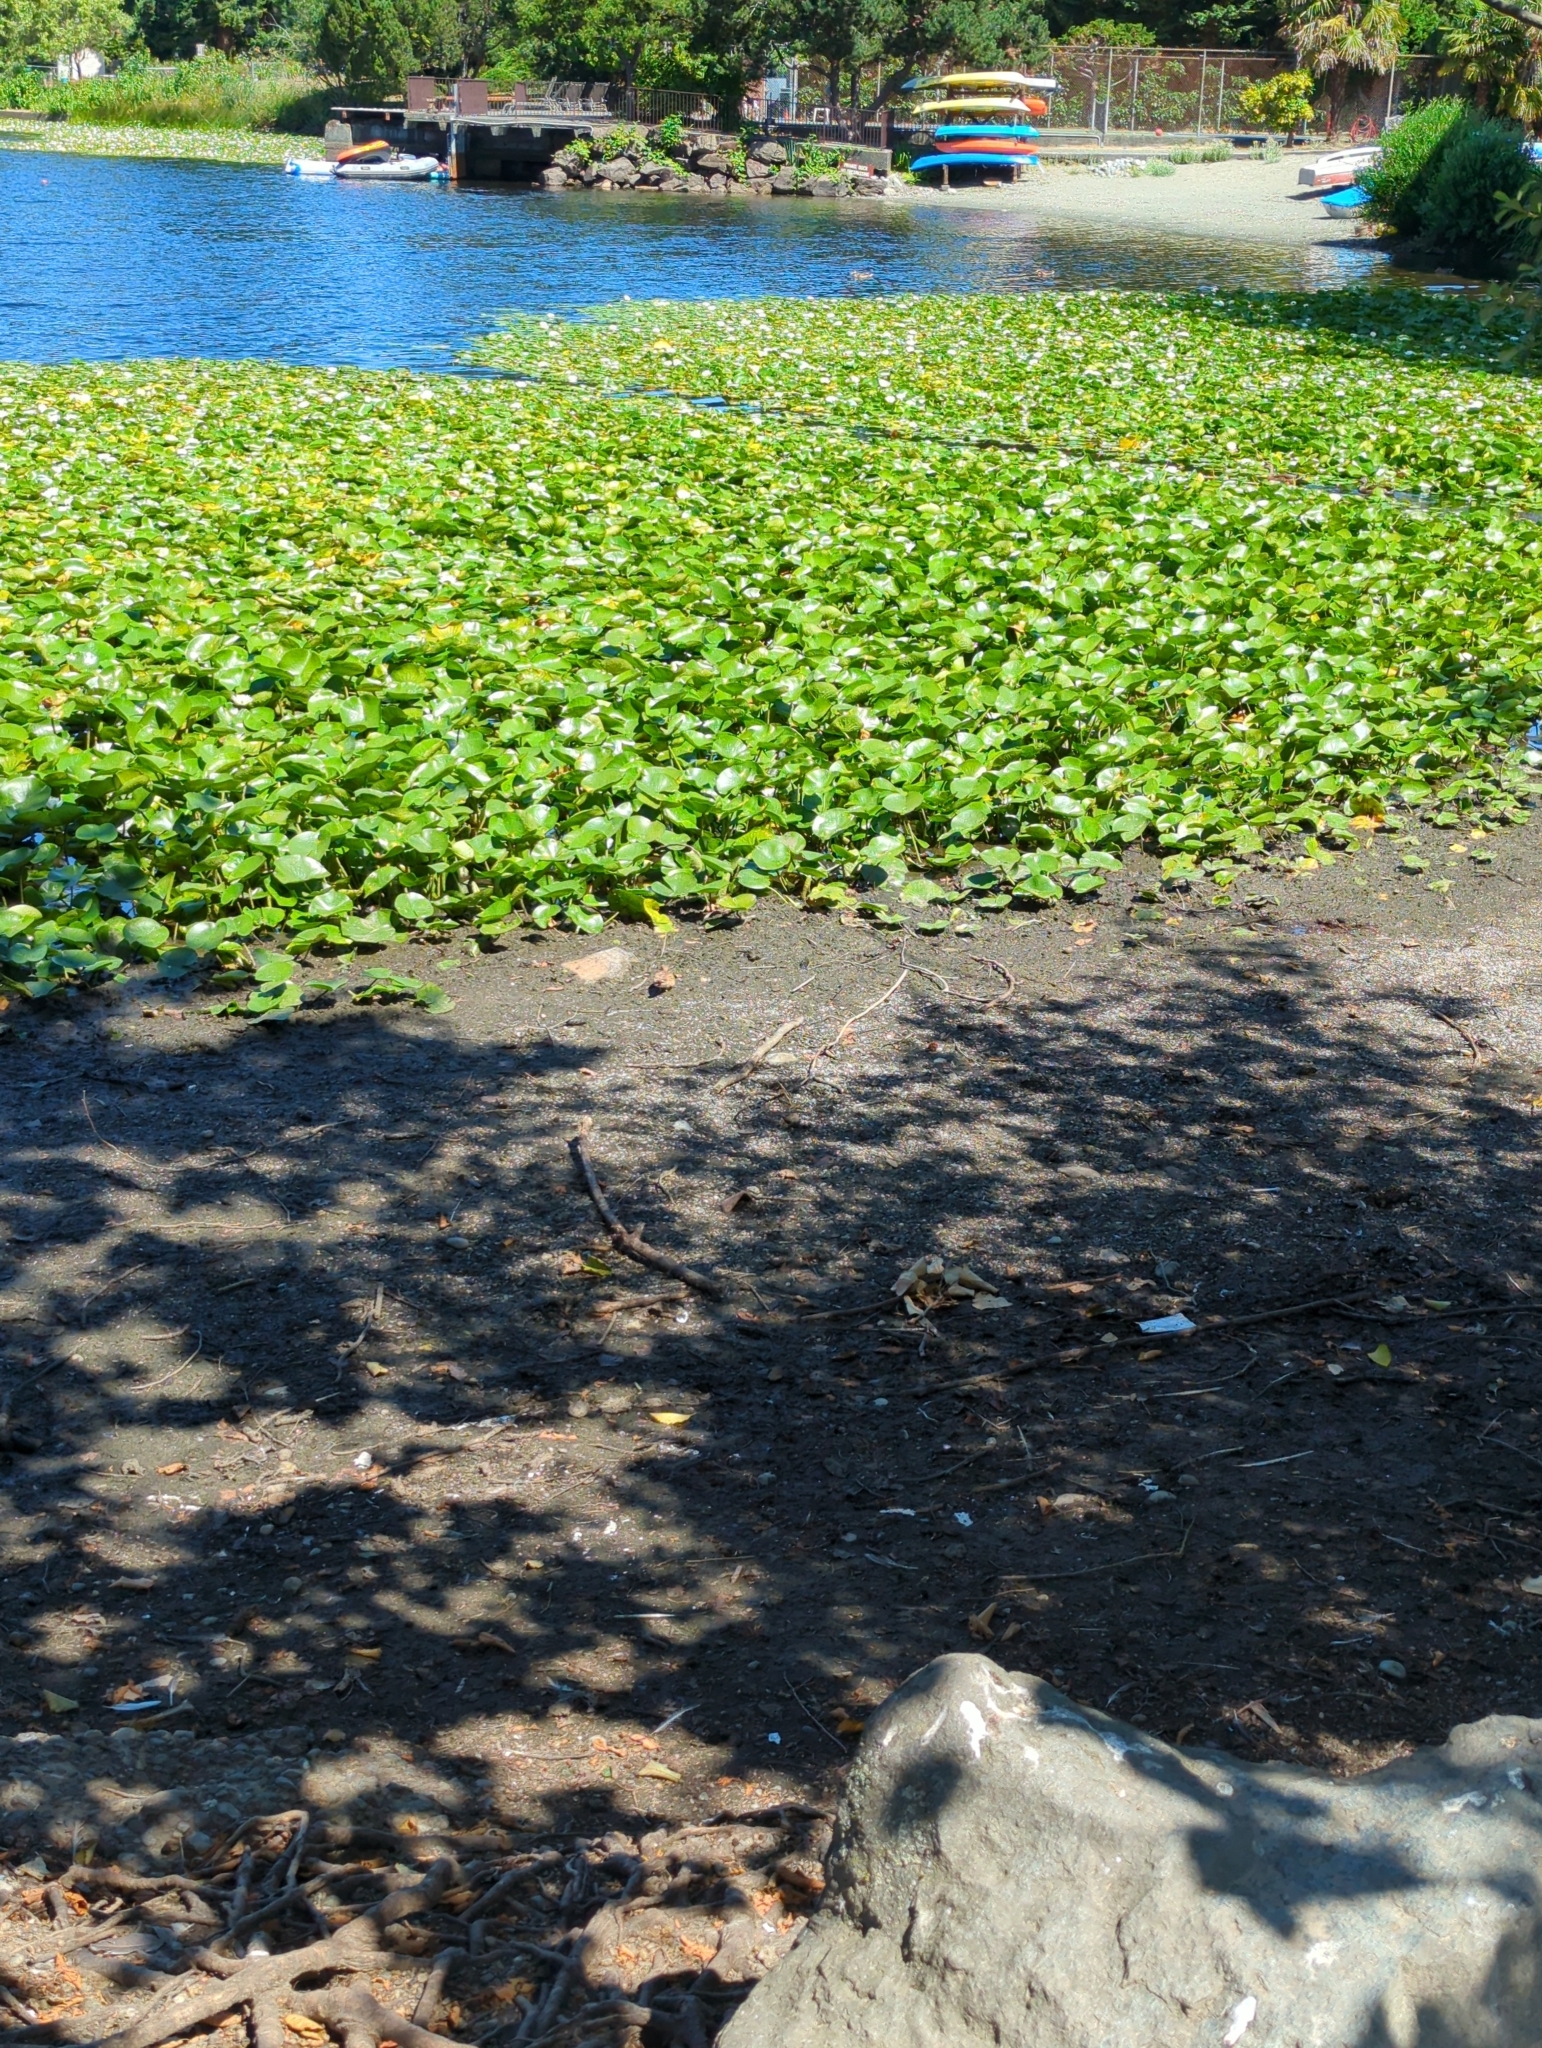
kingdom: Animalia
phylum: Chordata
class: Aves
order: Charadriiformes
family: Charadriidae
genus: Charadrius
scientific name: Charadrius vociferus
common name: Killdeer
